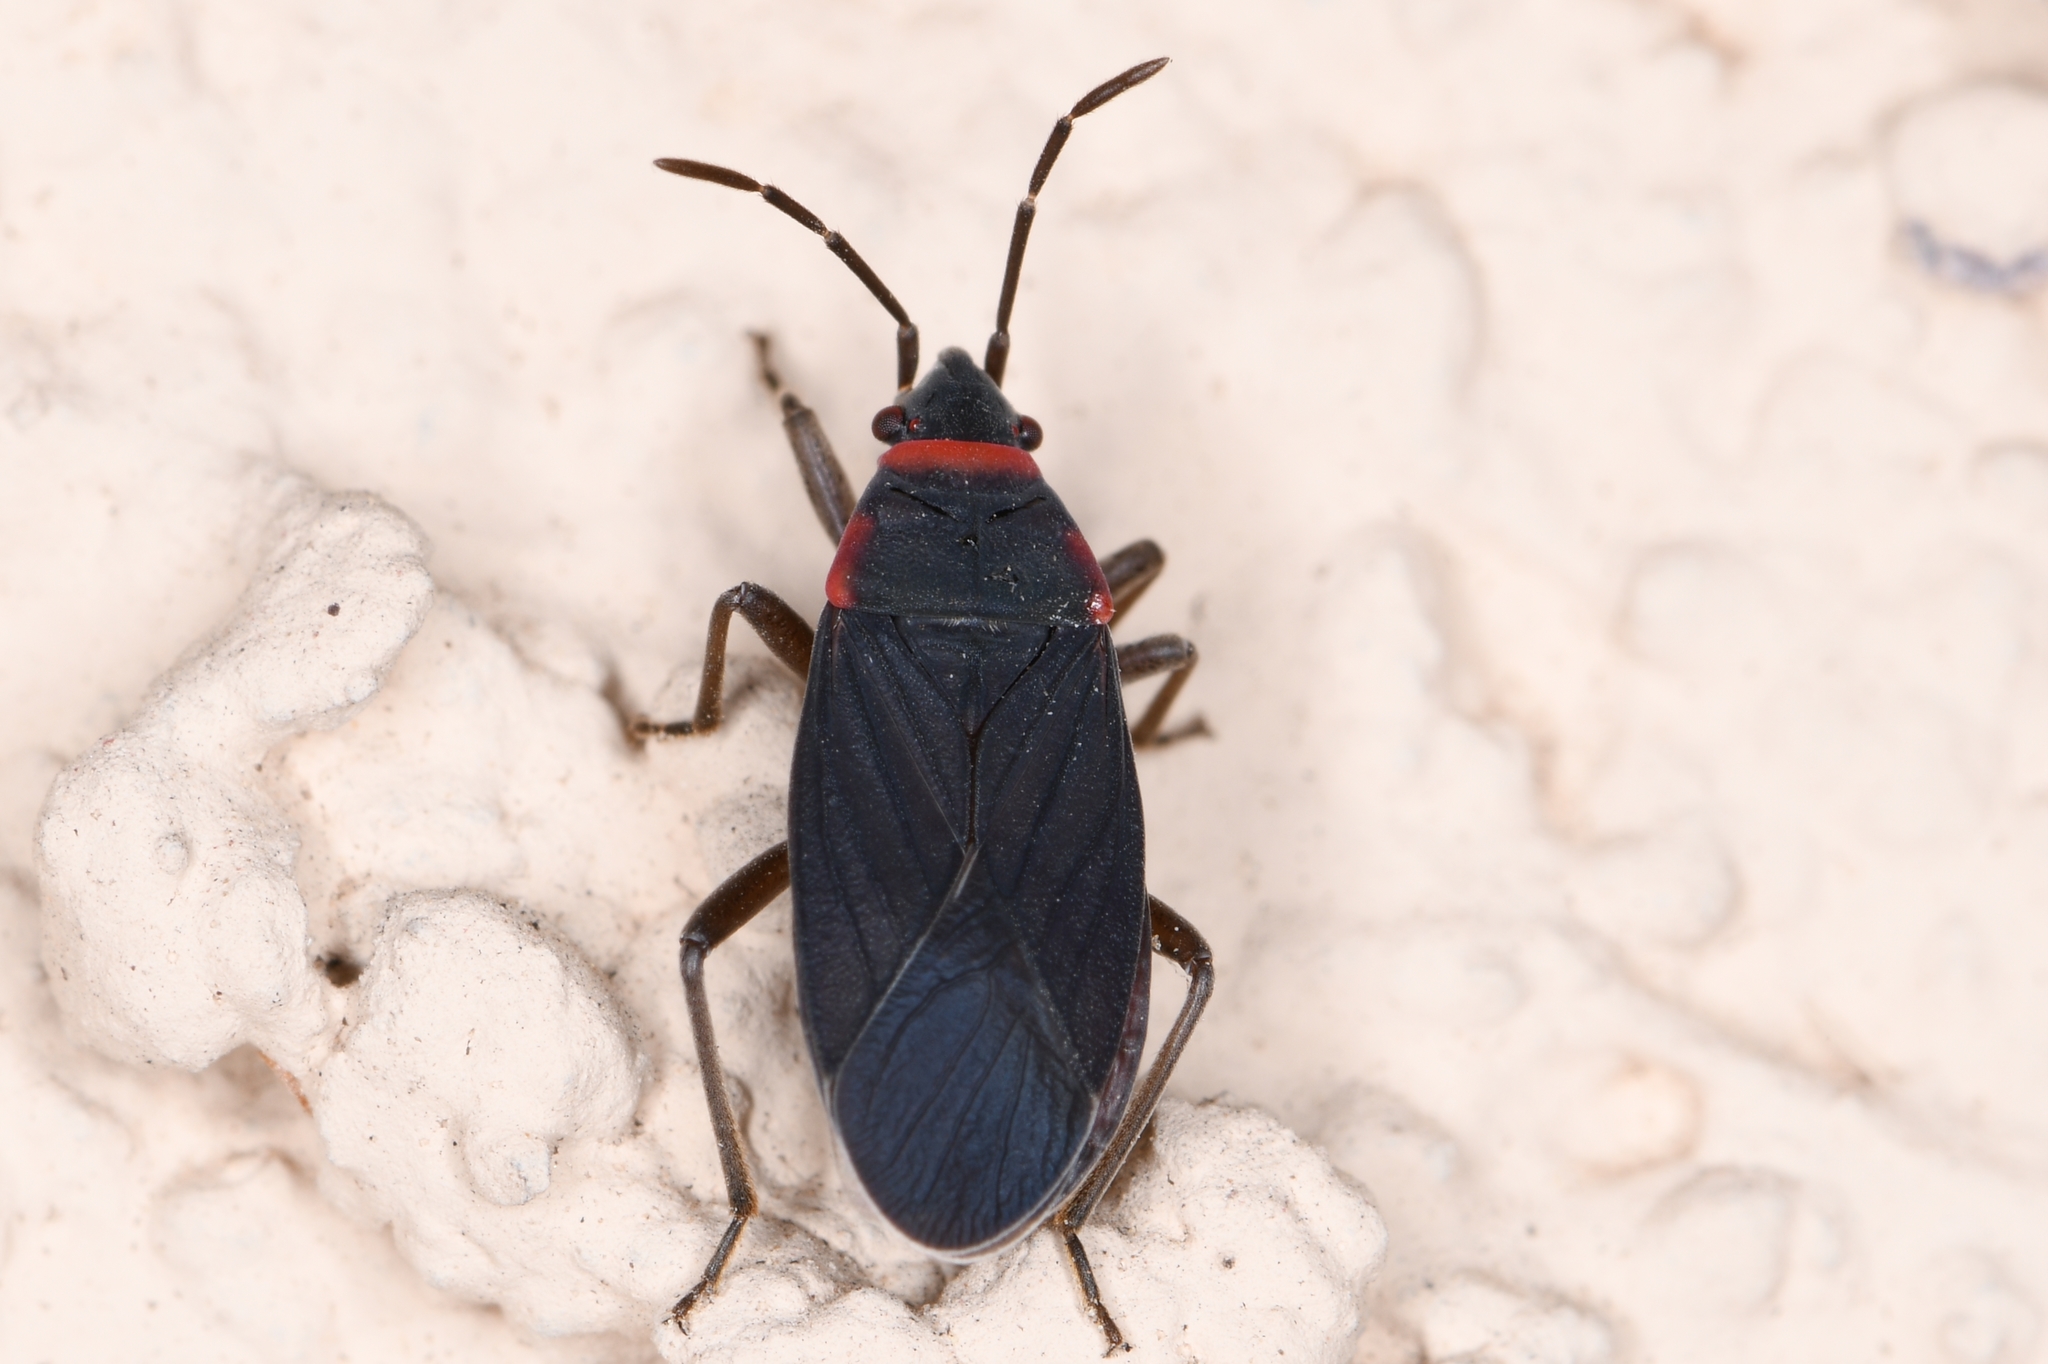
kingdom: Animalia
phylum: Arthropoda
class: Insecta
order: Hemiptera
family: Lygaeidae
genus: Melacoryphus
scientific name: Melacoryphus rubicollis
